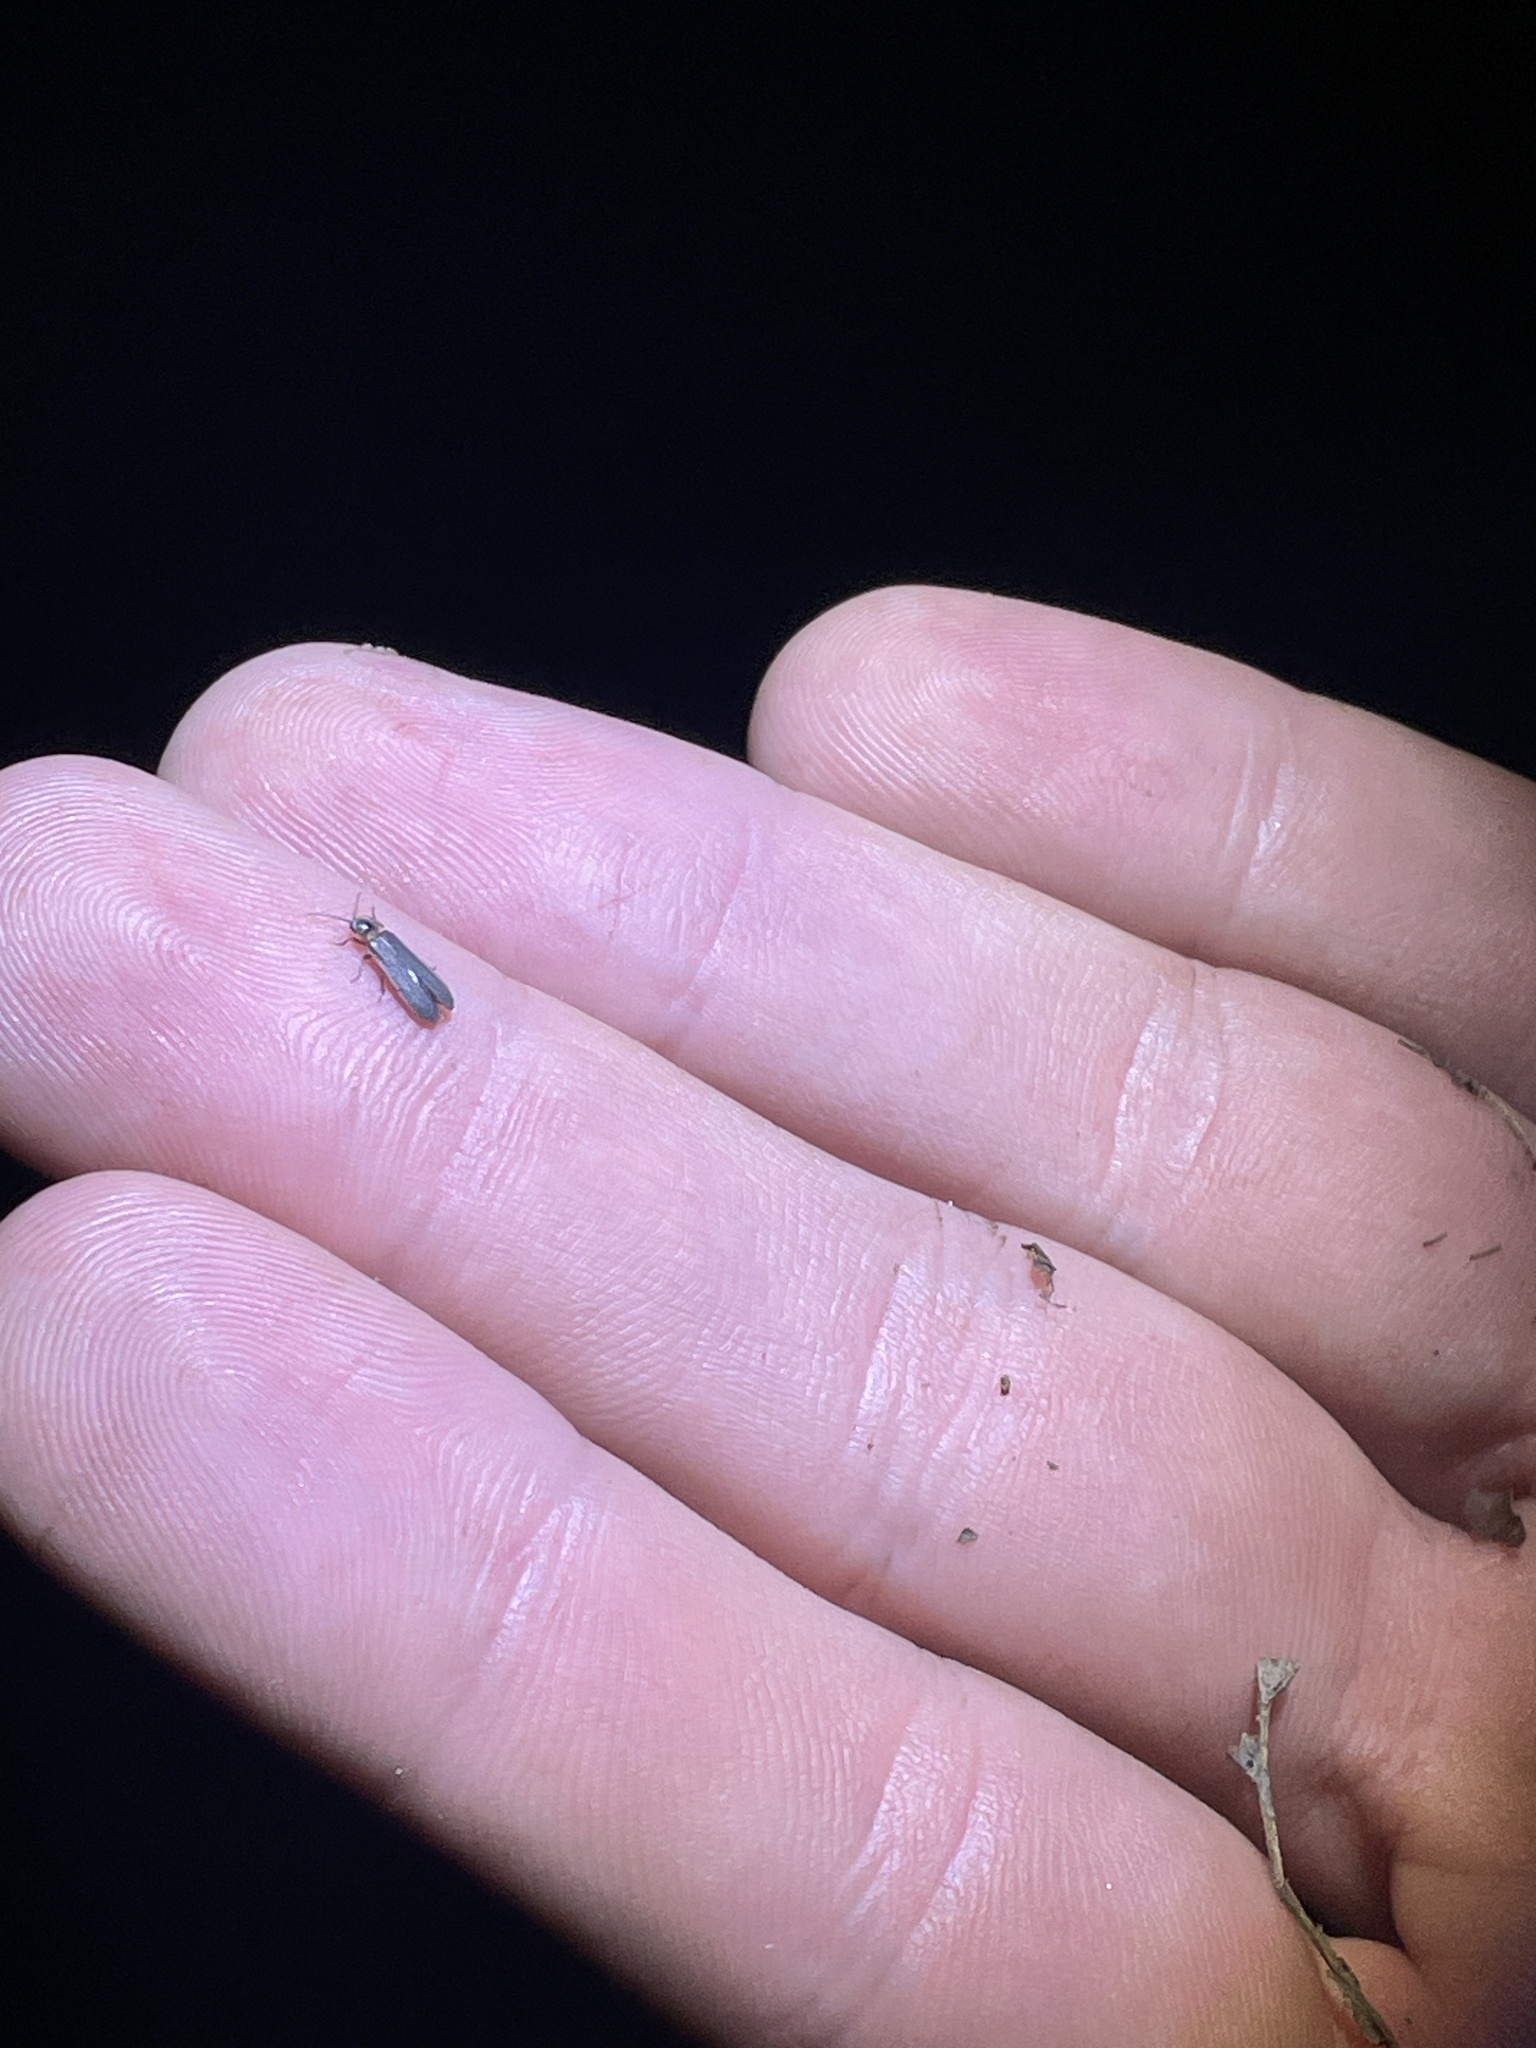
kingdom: Animalia
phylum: Arthropoda
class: Insecta
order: Coleoptera
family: Lampyridae
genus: Phausis
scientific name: Phausis reticulata
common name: Blue ghost firefly
